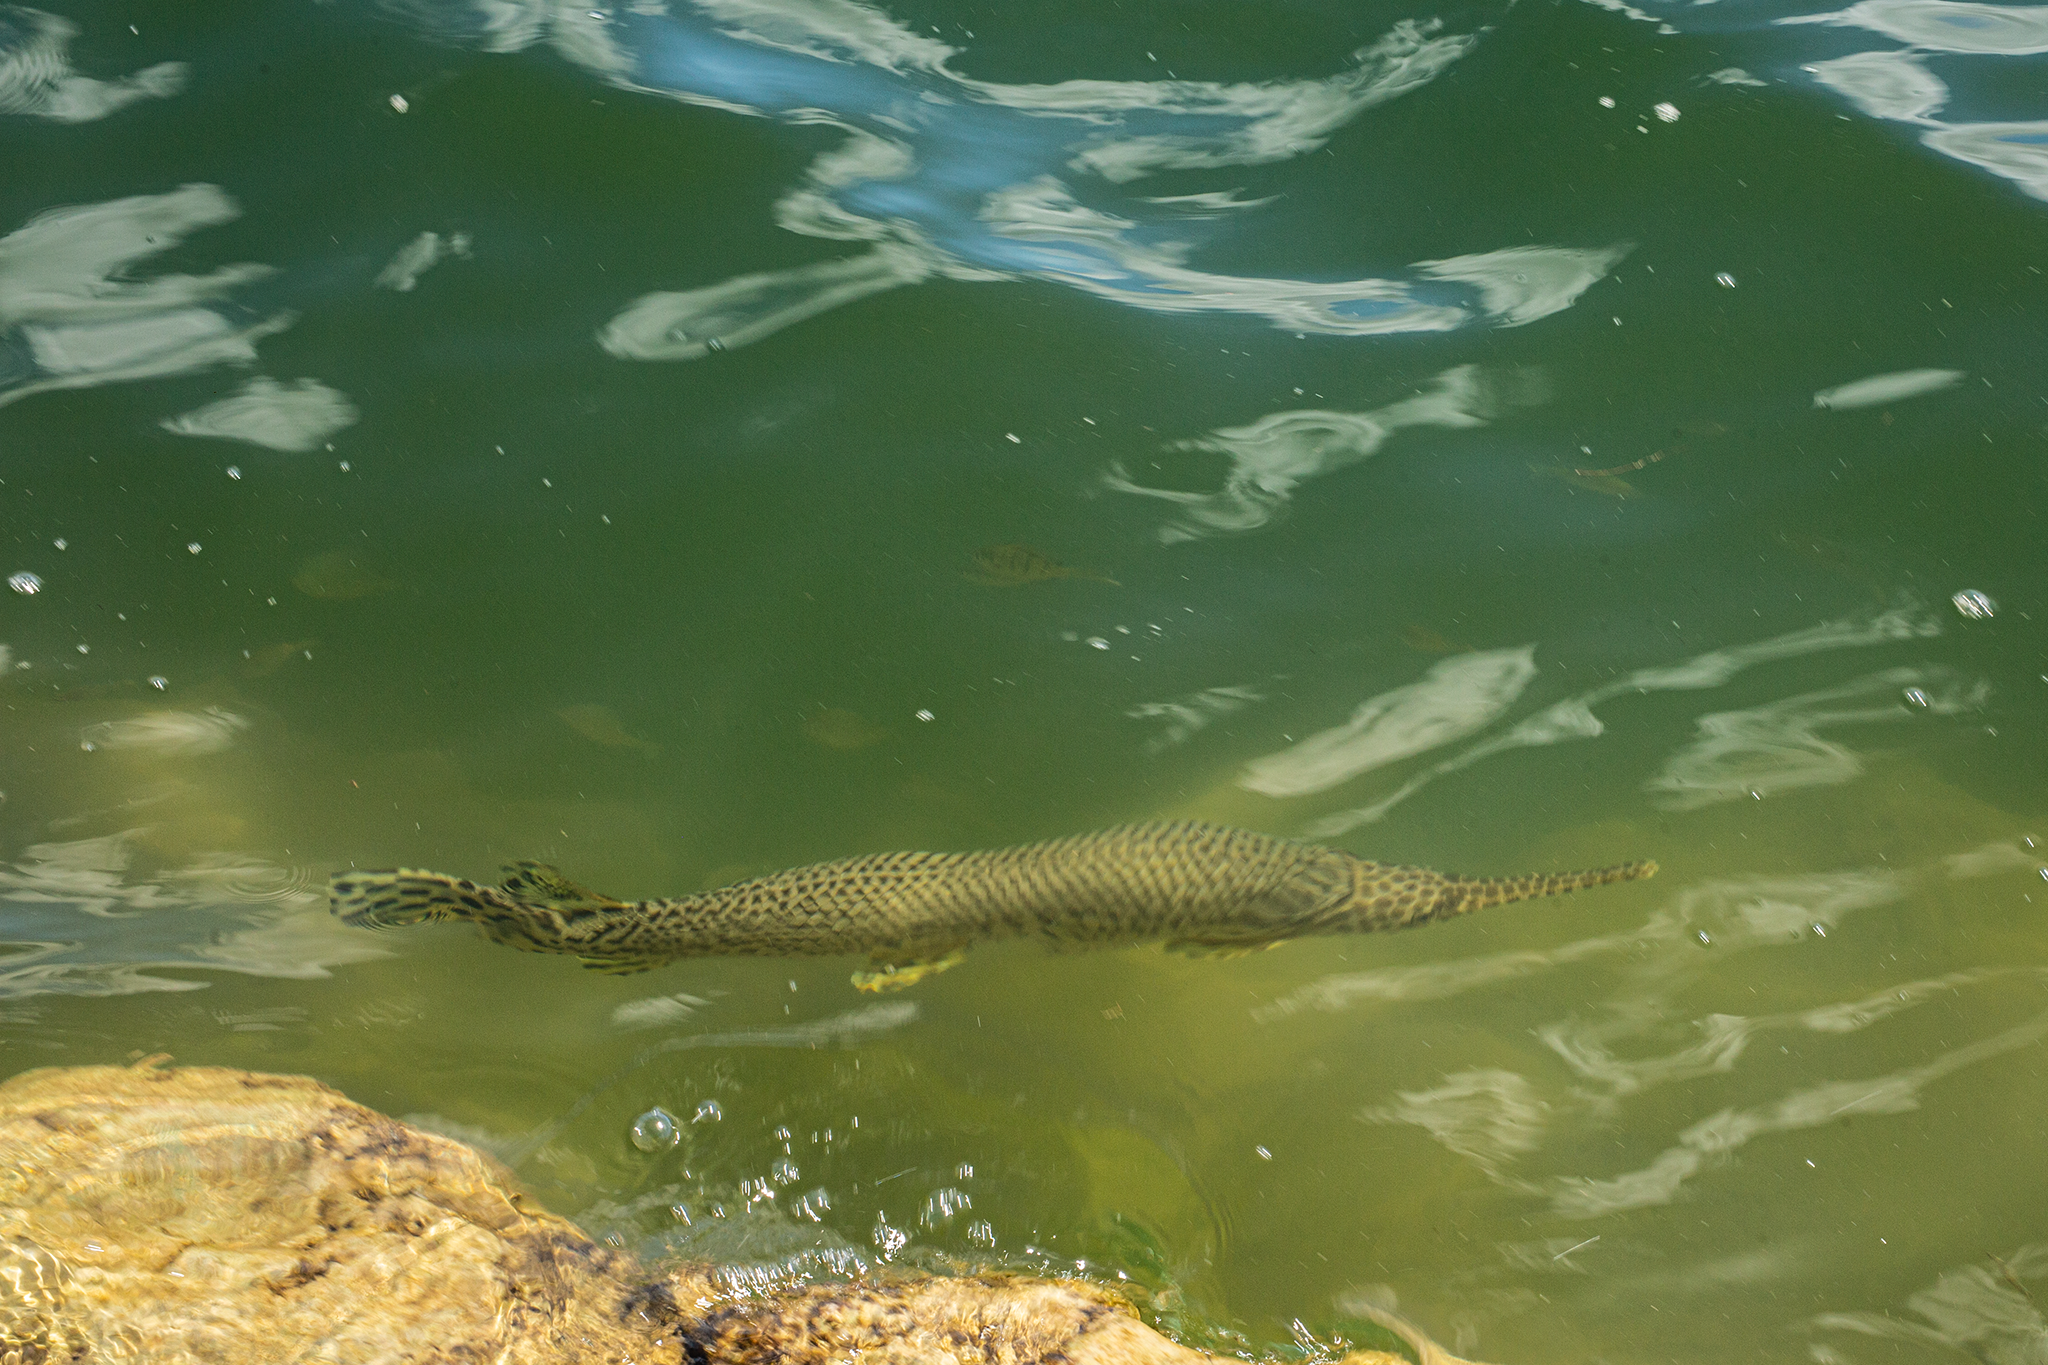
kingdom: Animalia
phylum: Chordata
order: Lepisosteiformes
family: Lepisosteidae
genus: Lepisosteus
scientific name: Lepisosteus oculatus
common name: Spotted gar
